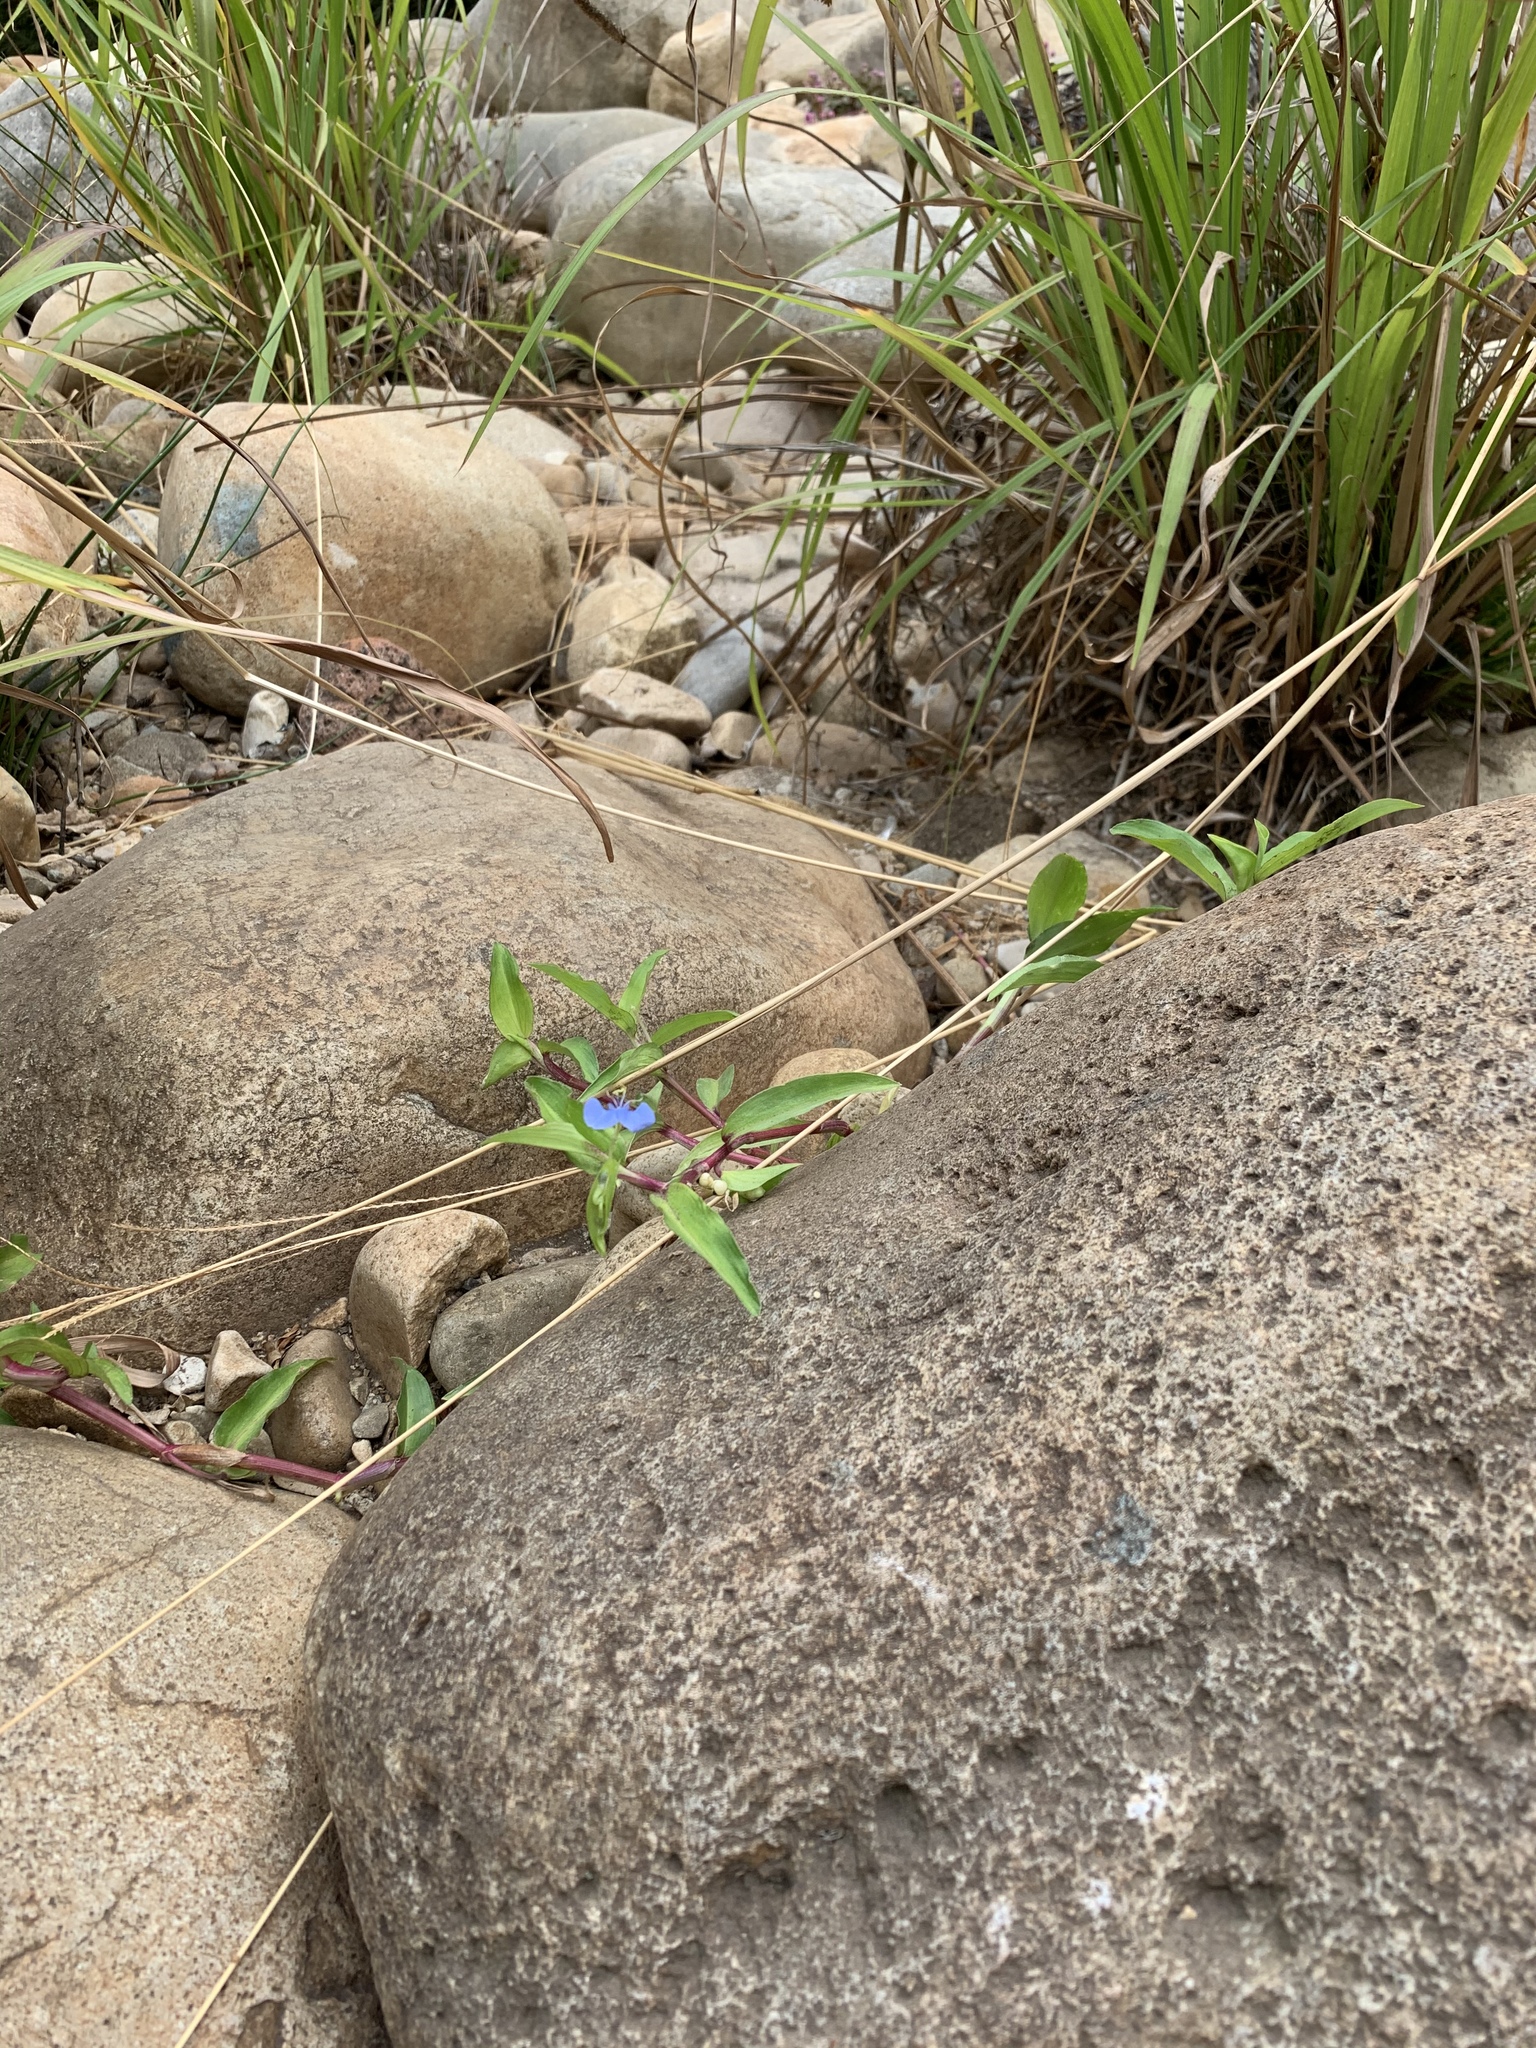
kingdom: Plantae
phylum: Tracheophyta
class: Liliopsida
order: Commelinales
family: Commelinaceae
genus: Commelina
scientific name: Commelina diffusa
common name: Climbing dayflower
